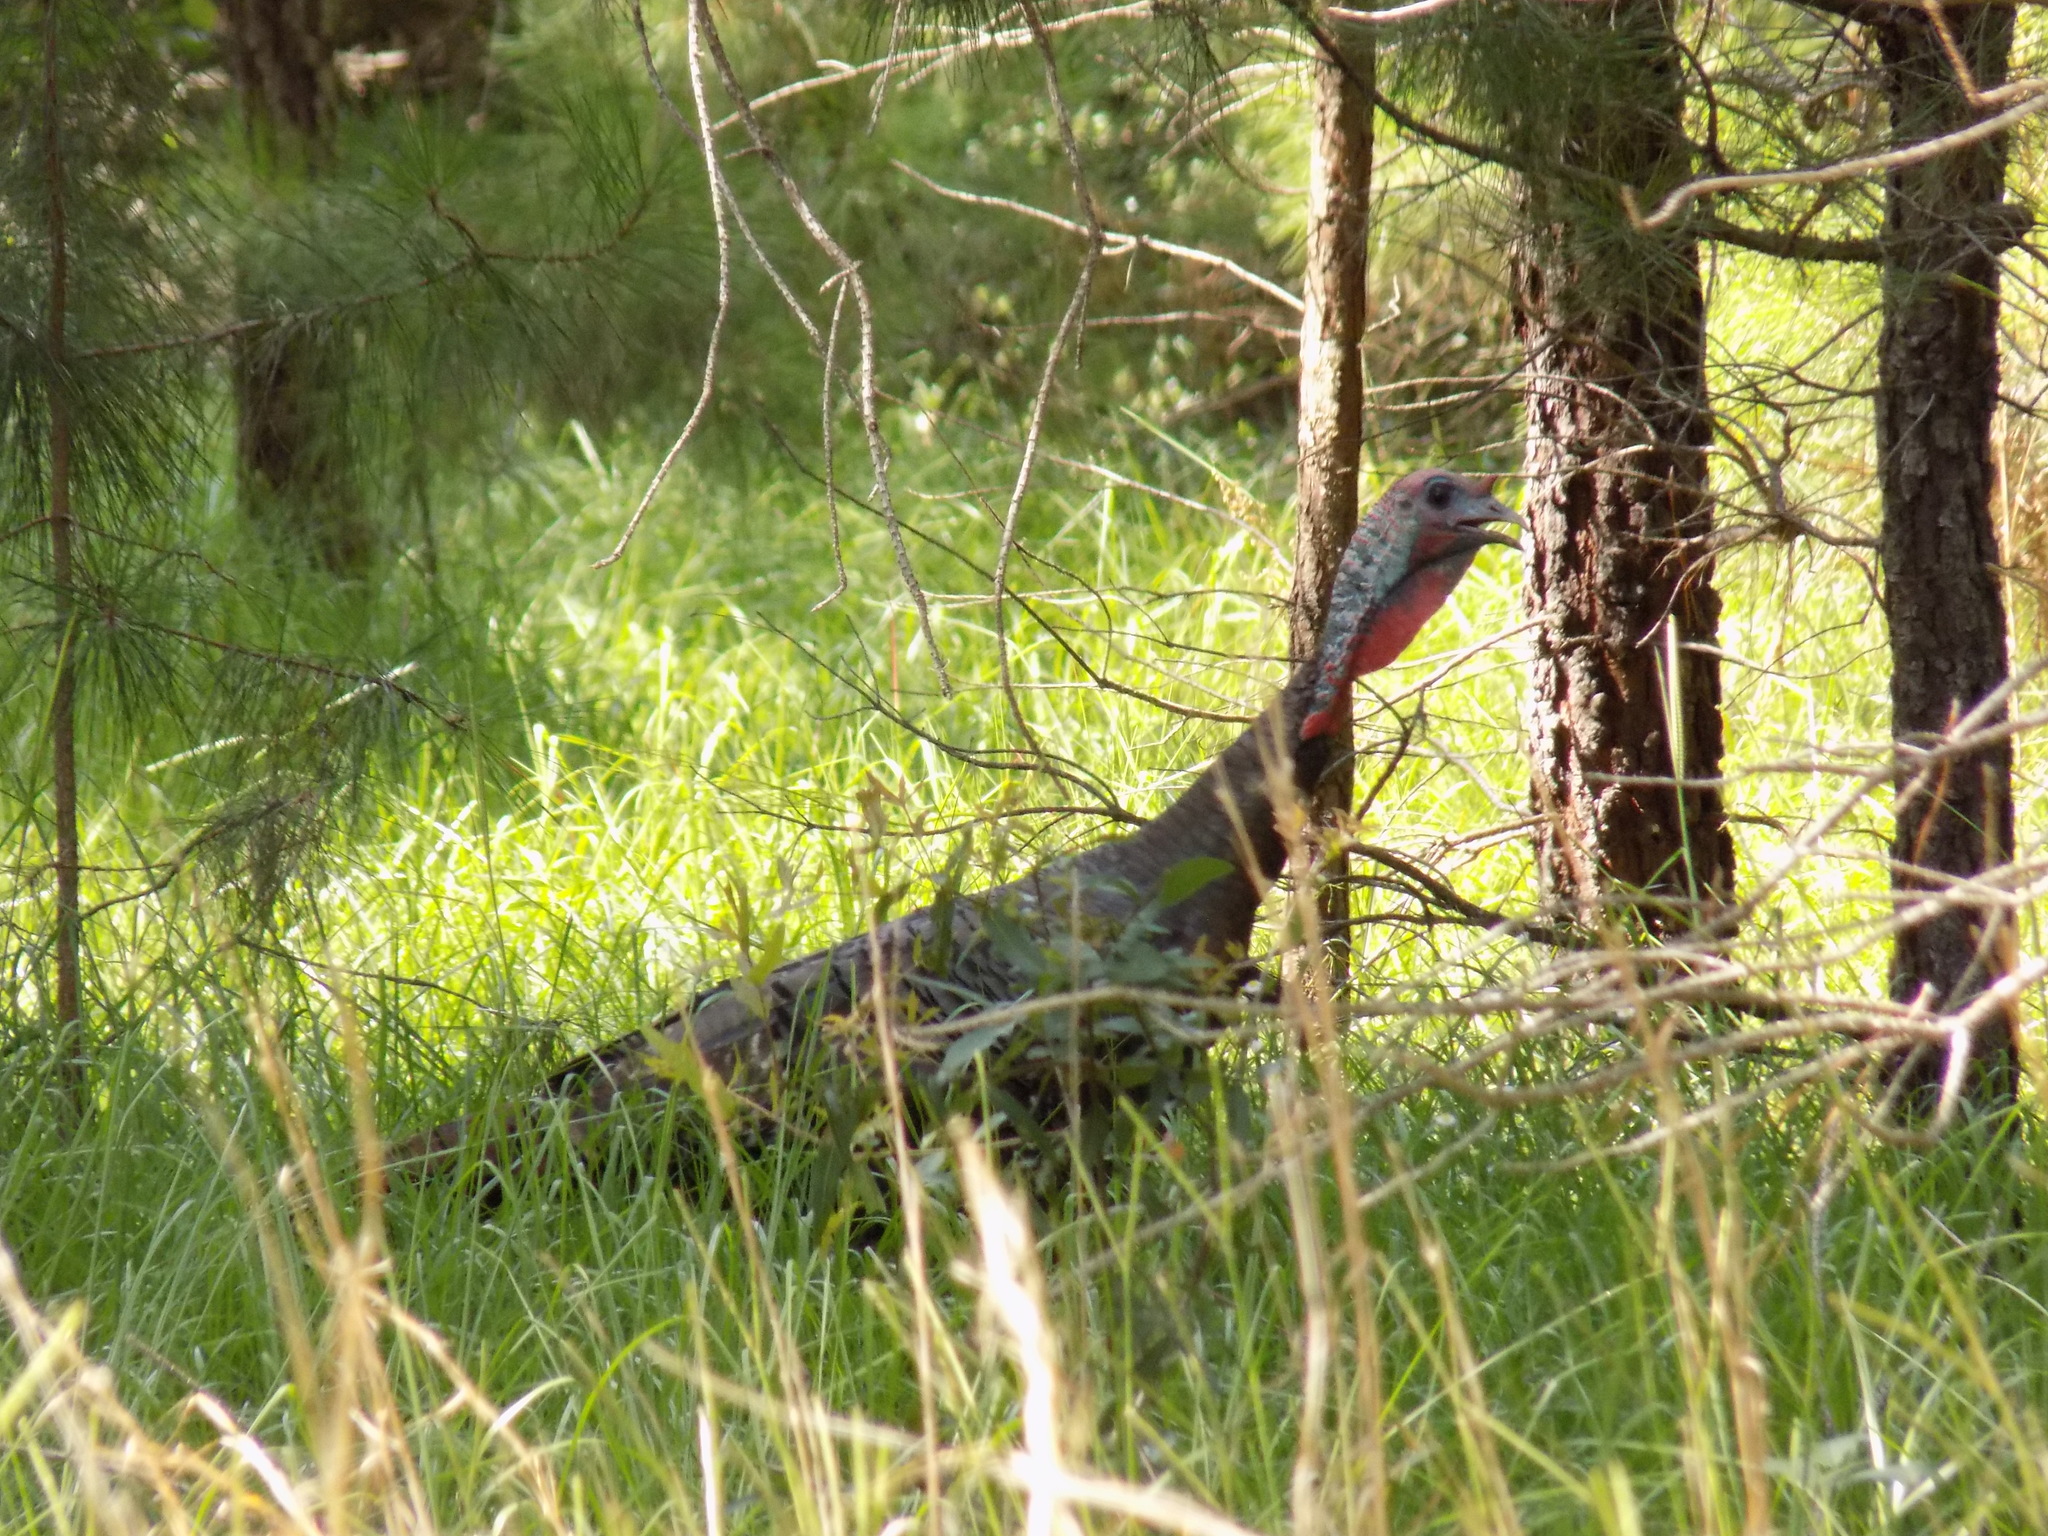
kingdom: Animalia
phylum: Chordata
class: Aves
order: Galliformes
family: Phasianidae
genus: Meleagris
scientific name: Meleagris gallopavo
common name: Wild turkey
